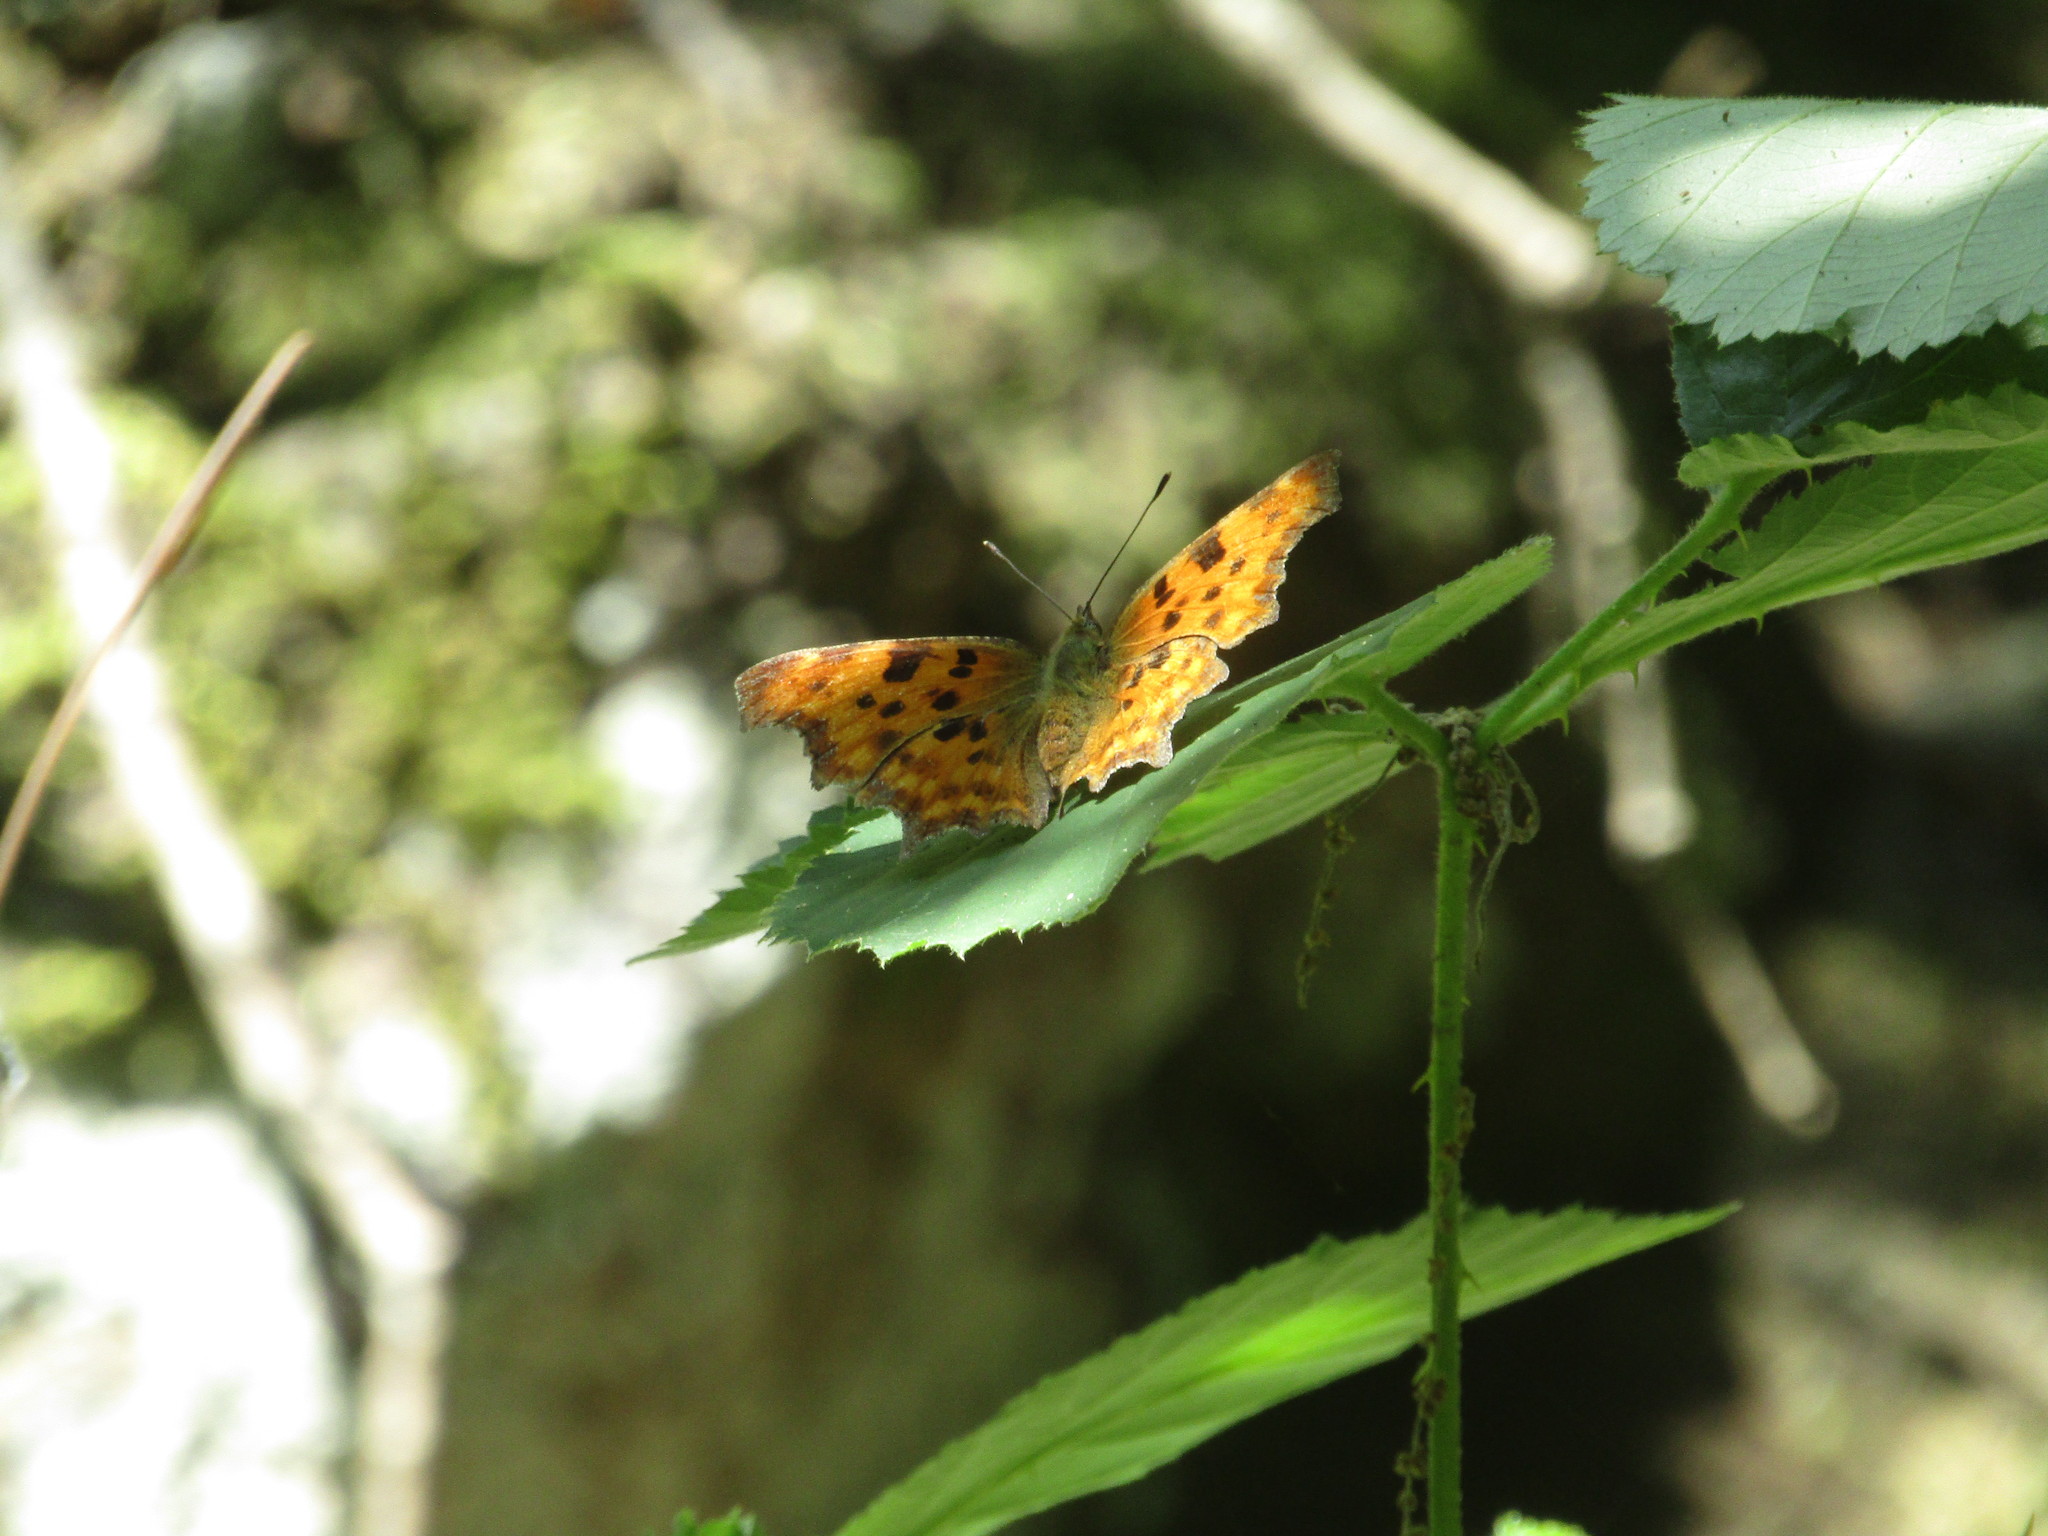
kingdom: Animalia
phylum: Arthropoda
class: Insecta
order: Lepidoptera
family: Nymphalidae
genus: Polygonia
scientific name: Polygonia c-album
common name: Comma
